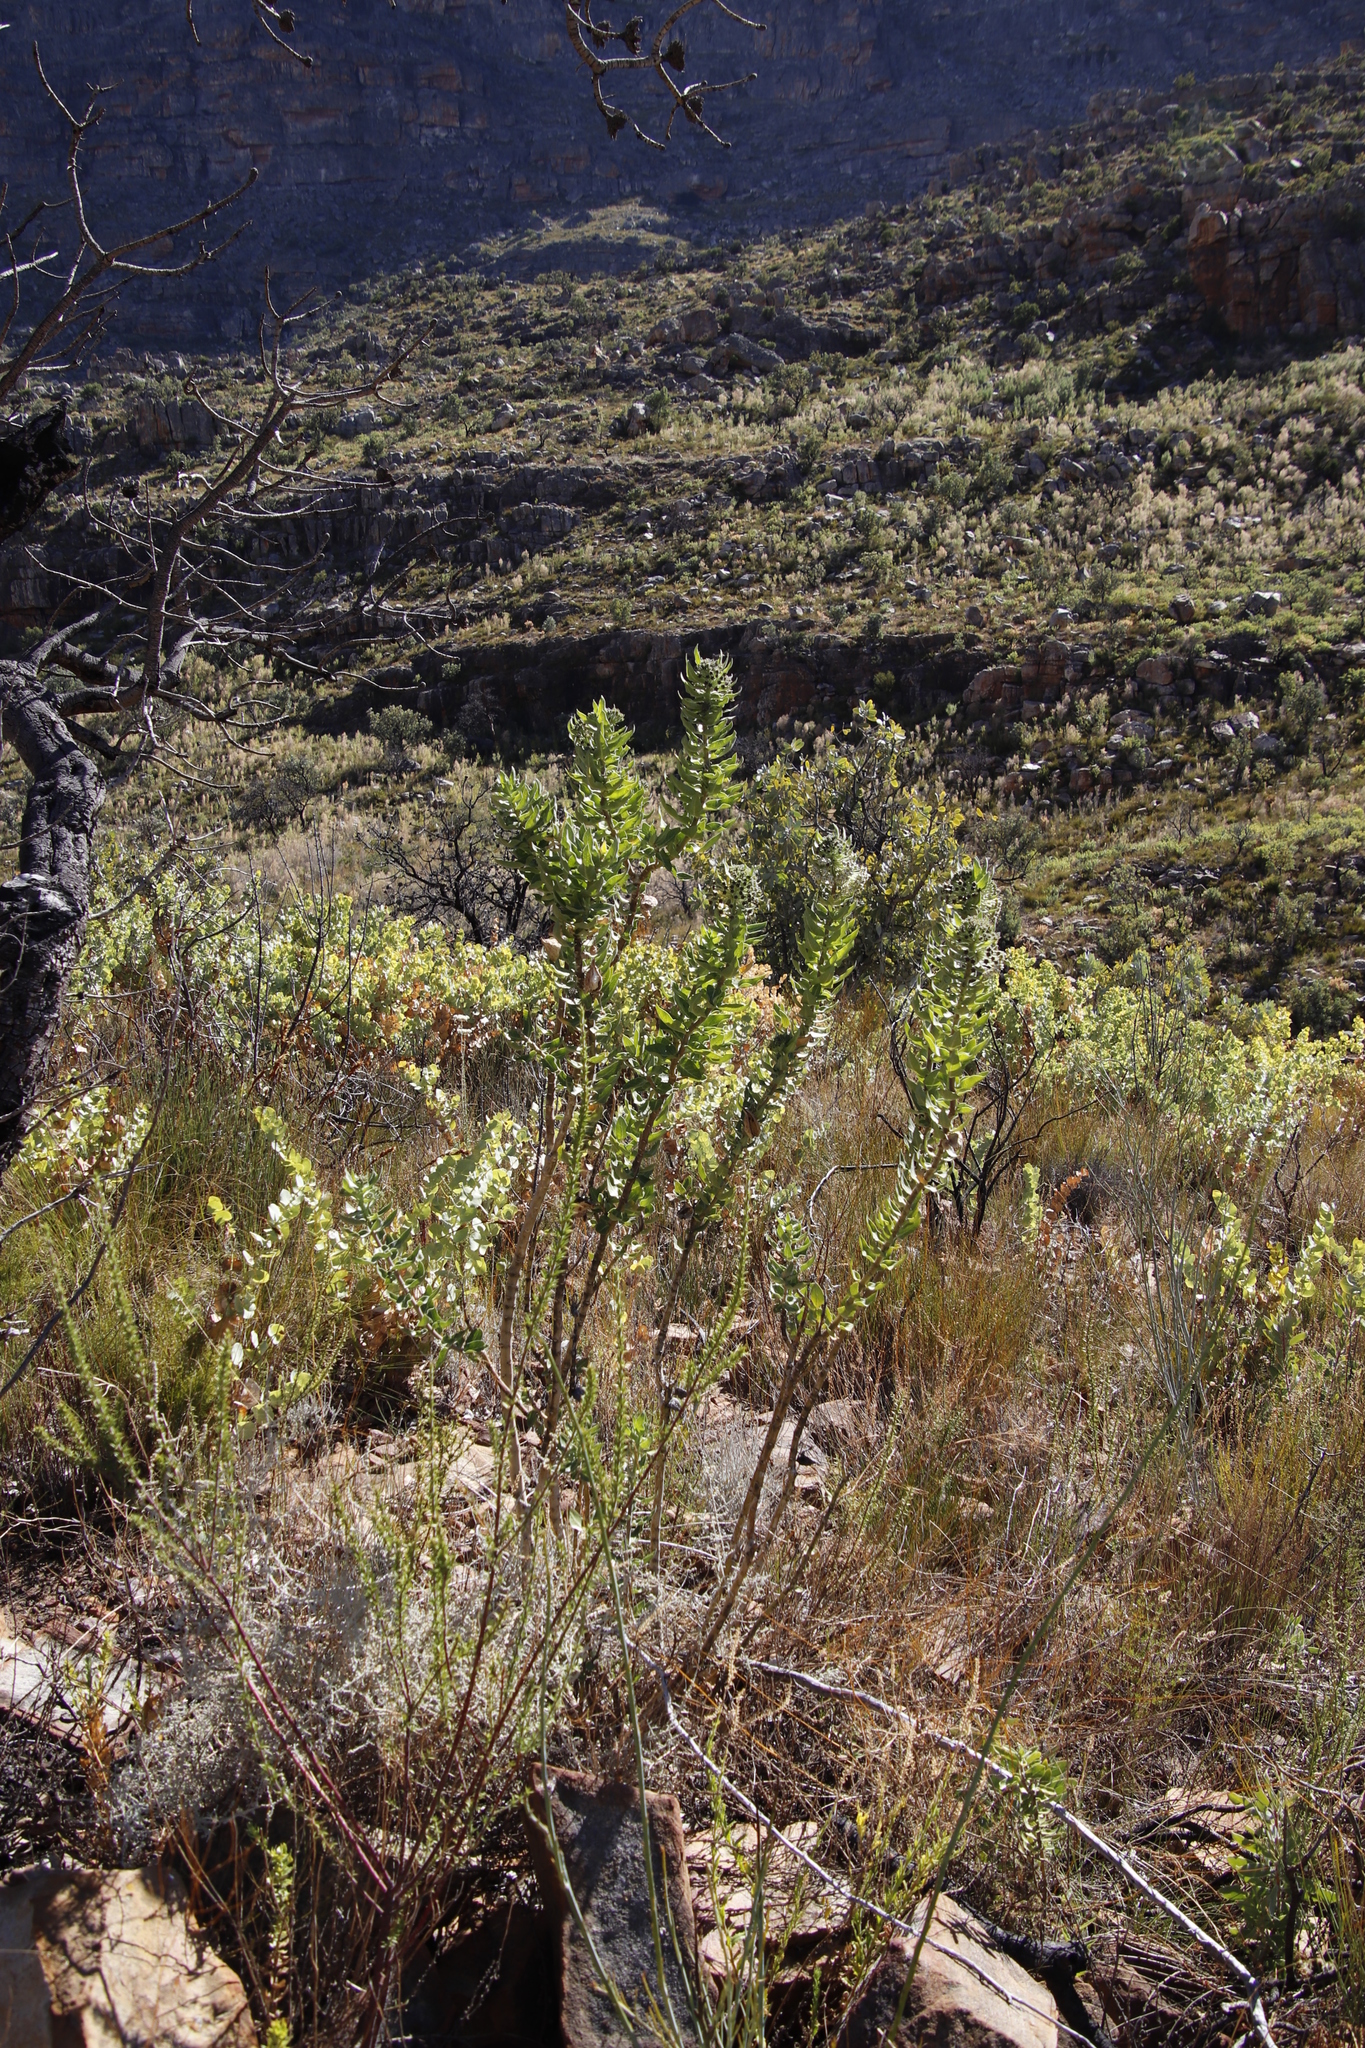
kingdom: Plantae
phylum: Tracheophyta
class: Magnoliopsida
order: Gentianales
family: Apocynaceae
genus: Gomphocarpus
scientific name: Gomphocarpus cancellatus
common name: Wild cotton
